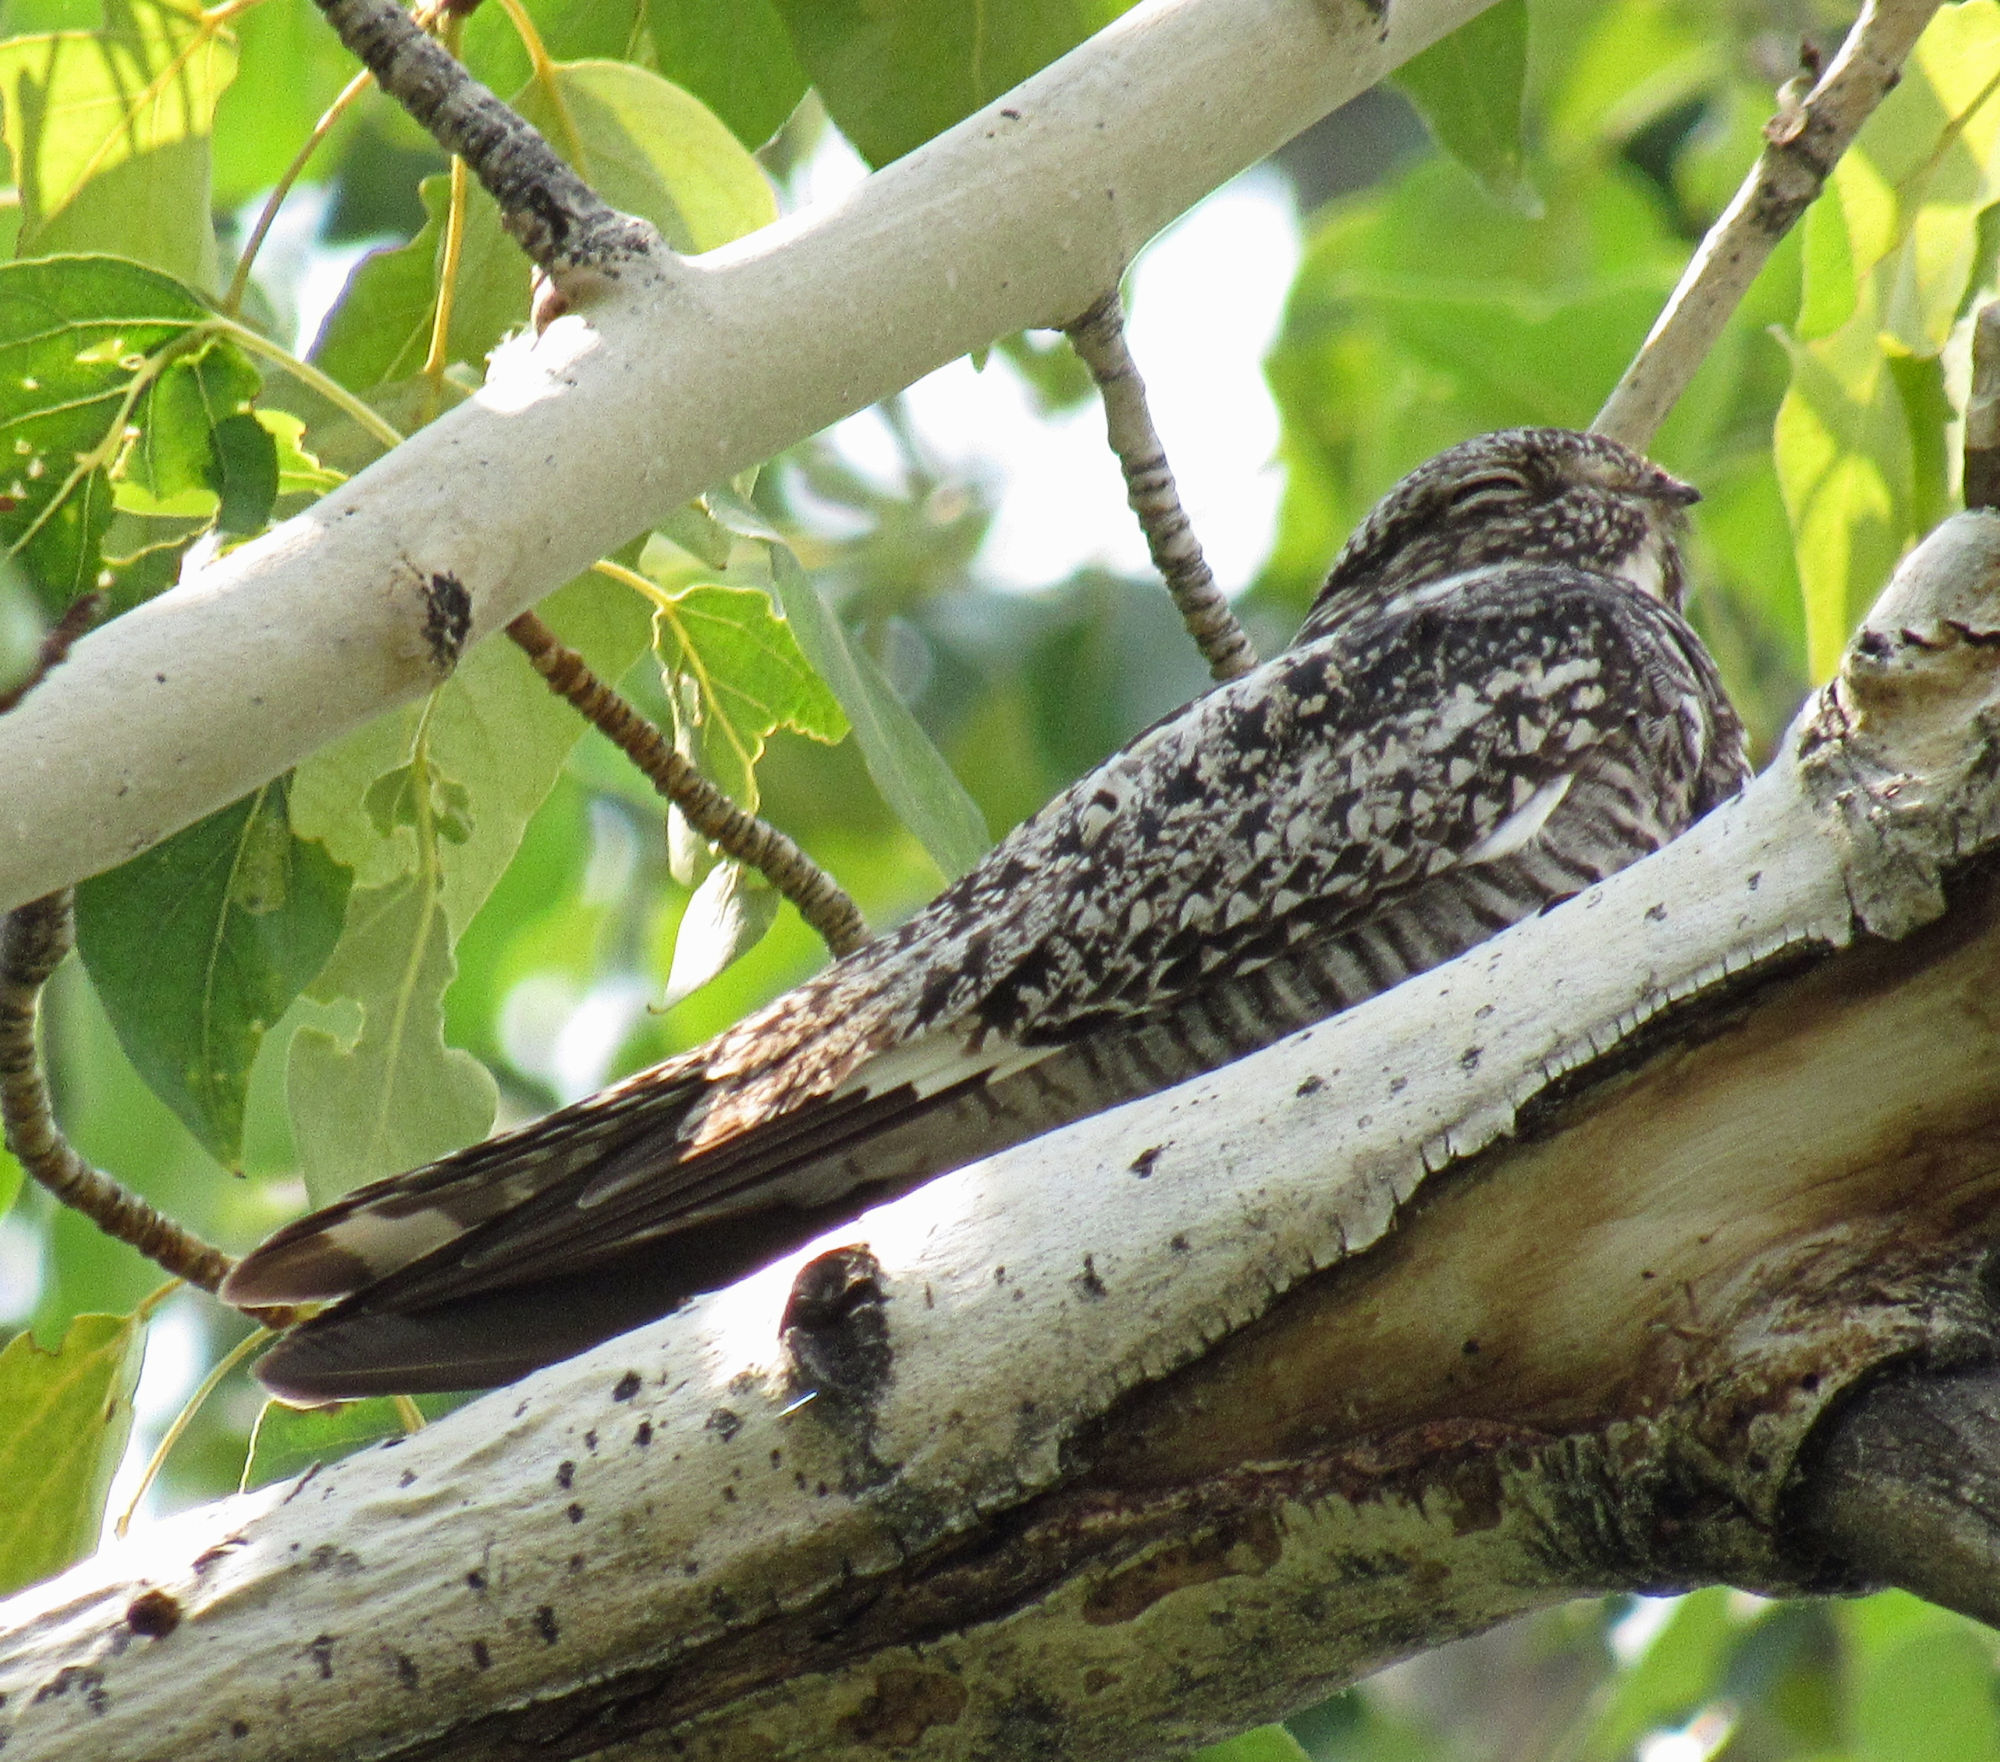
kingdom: Animalia
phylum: Chordata
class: Aves
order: Caprimulgiformes
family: Caprimulgidae
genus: Chordeiles
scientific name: Chordeiles minor
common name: Common nighthawk
